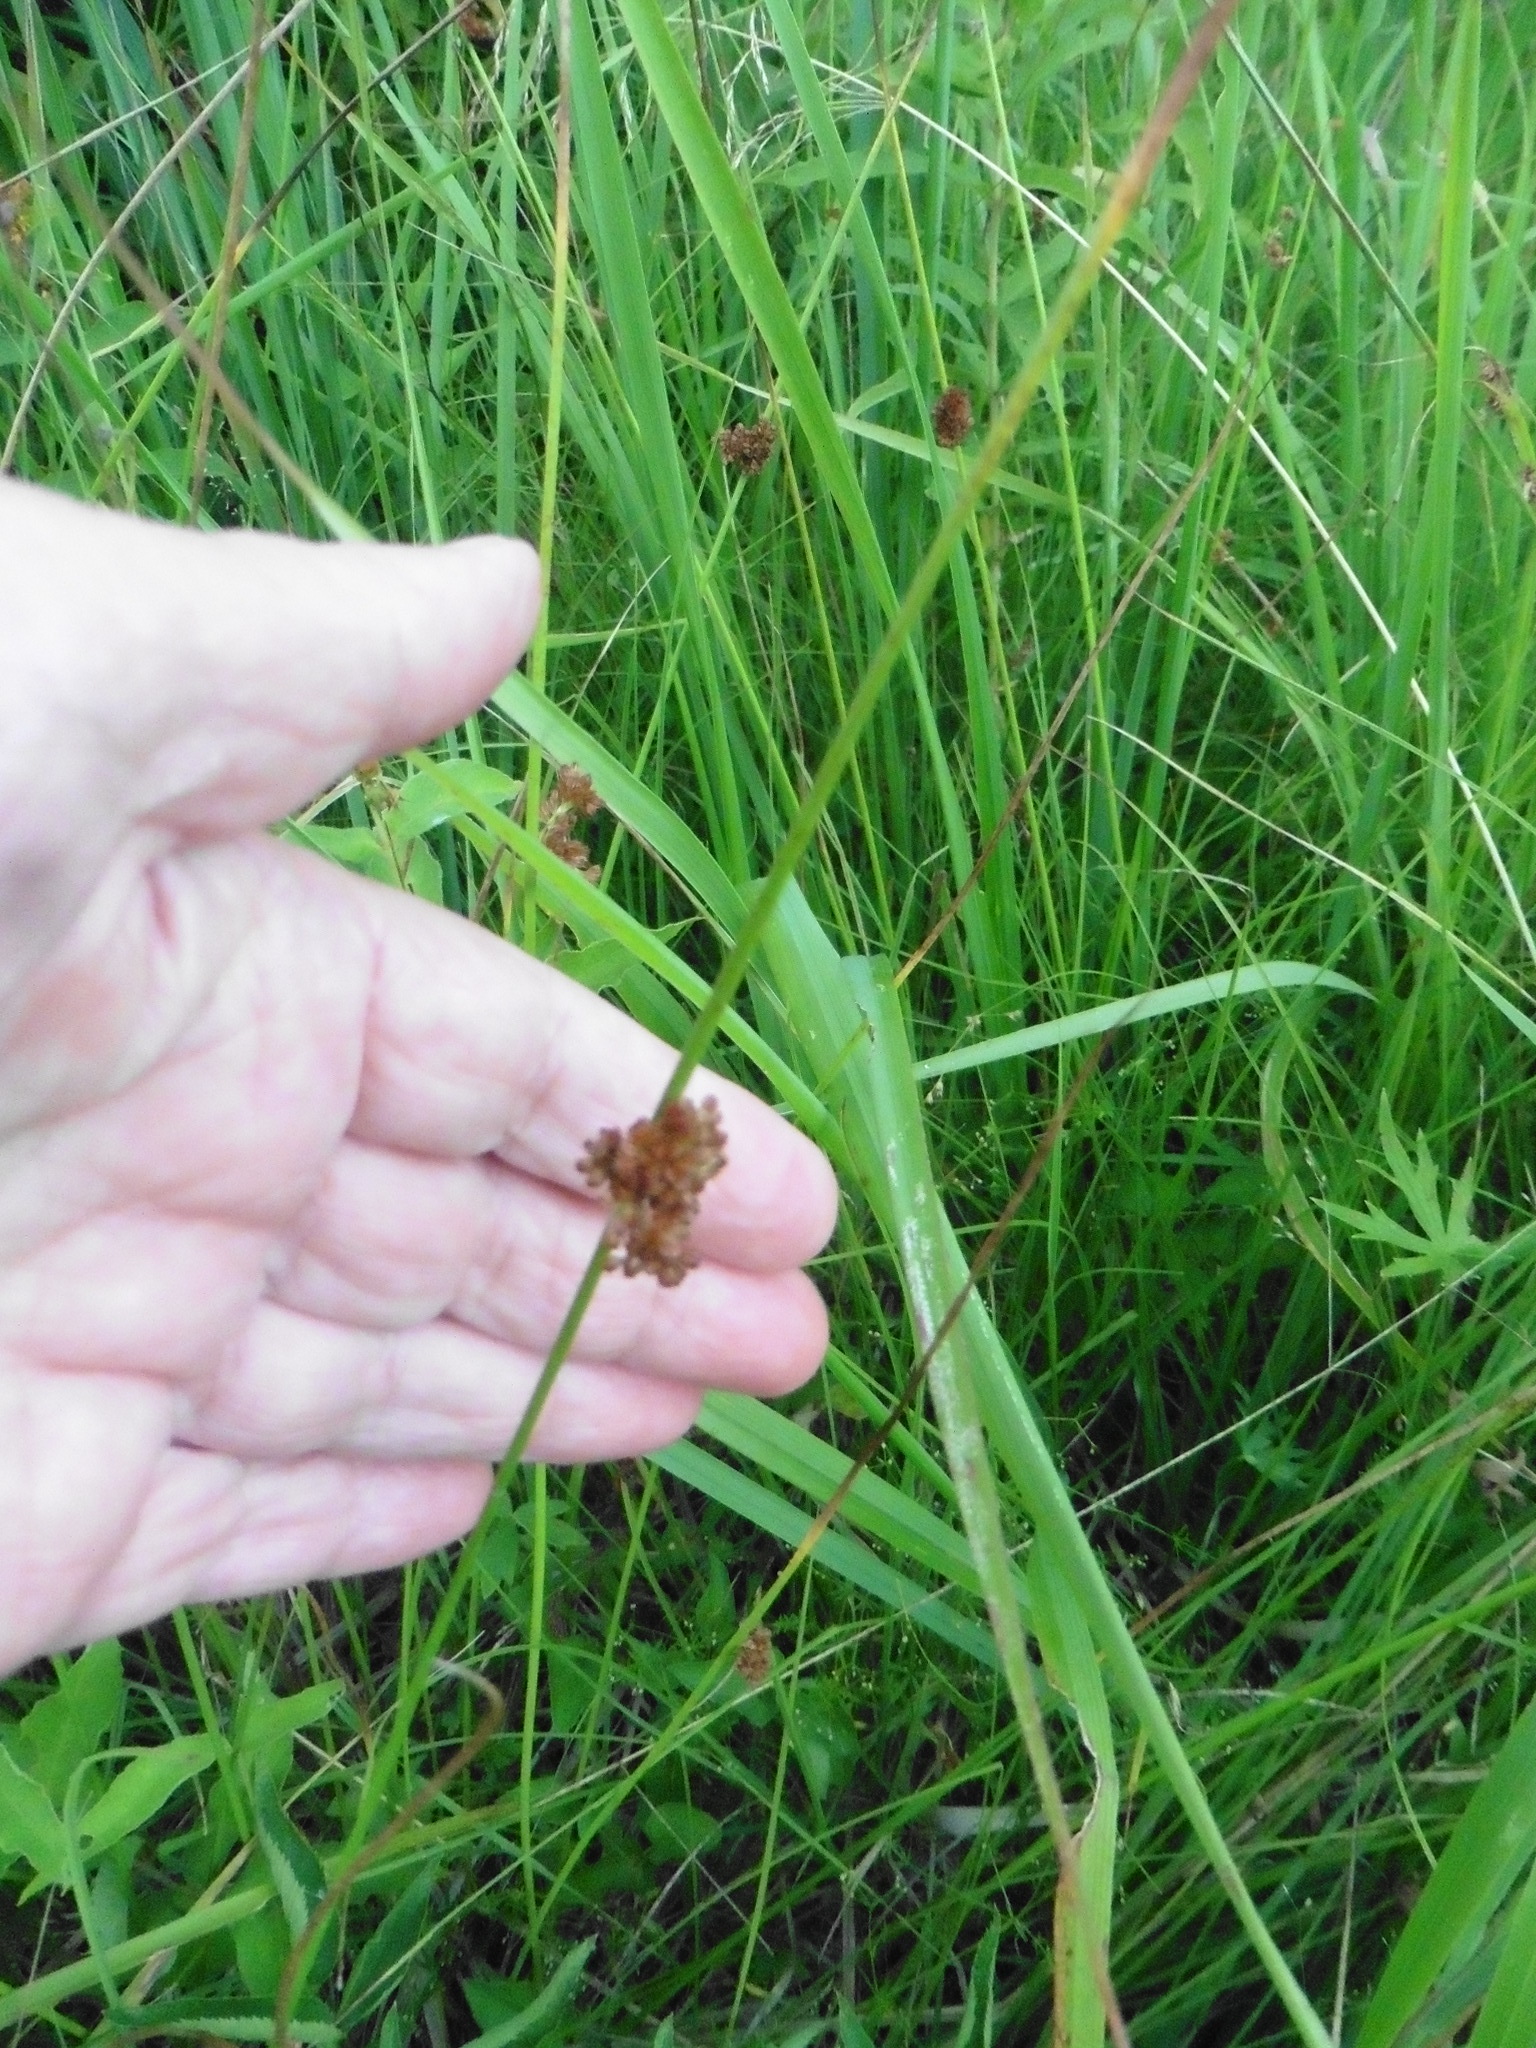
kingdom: Plantae
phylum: Tracheophyta
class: Liliopsida
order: Poales
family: Juncaceae
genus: Juncus
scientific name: Juncus effusus
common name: Soft rush
